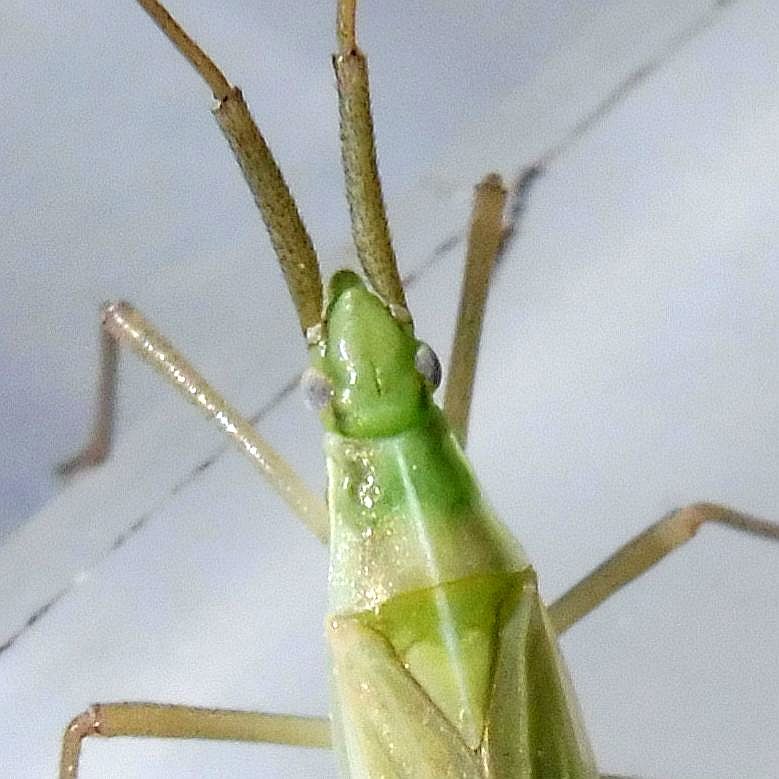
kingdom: Animalia
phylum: Arthropoda
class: Insecta
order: Hemiptera
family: Miridae
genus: Megaloceroea
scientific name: Megaloceroea recticornis
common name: Plant bug
